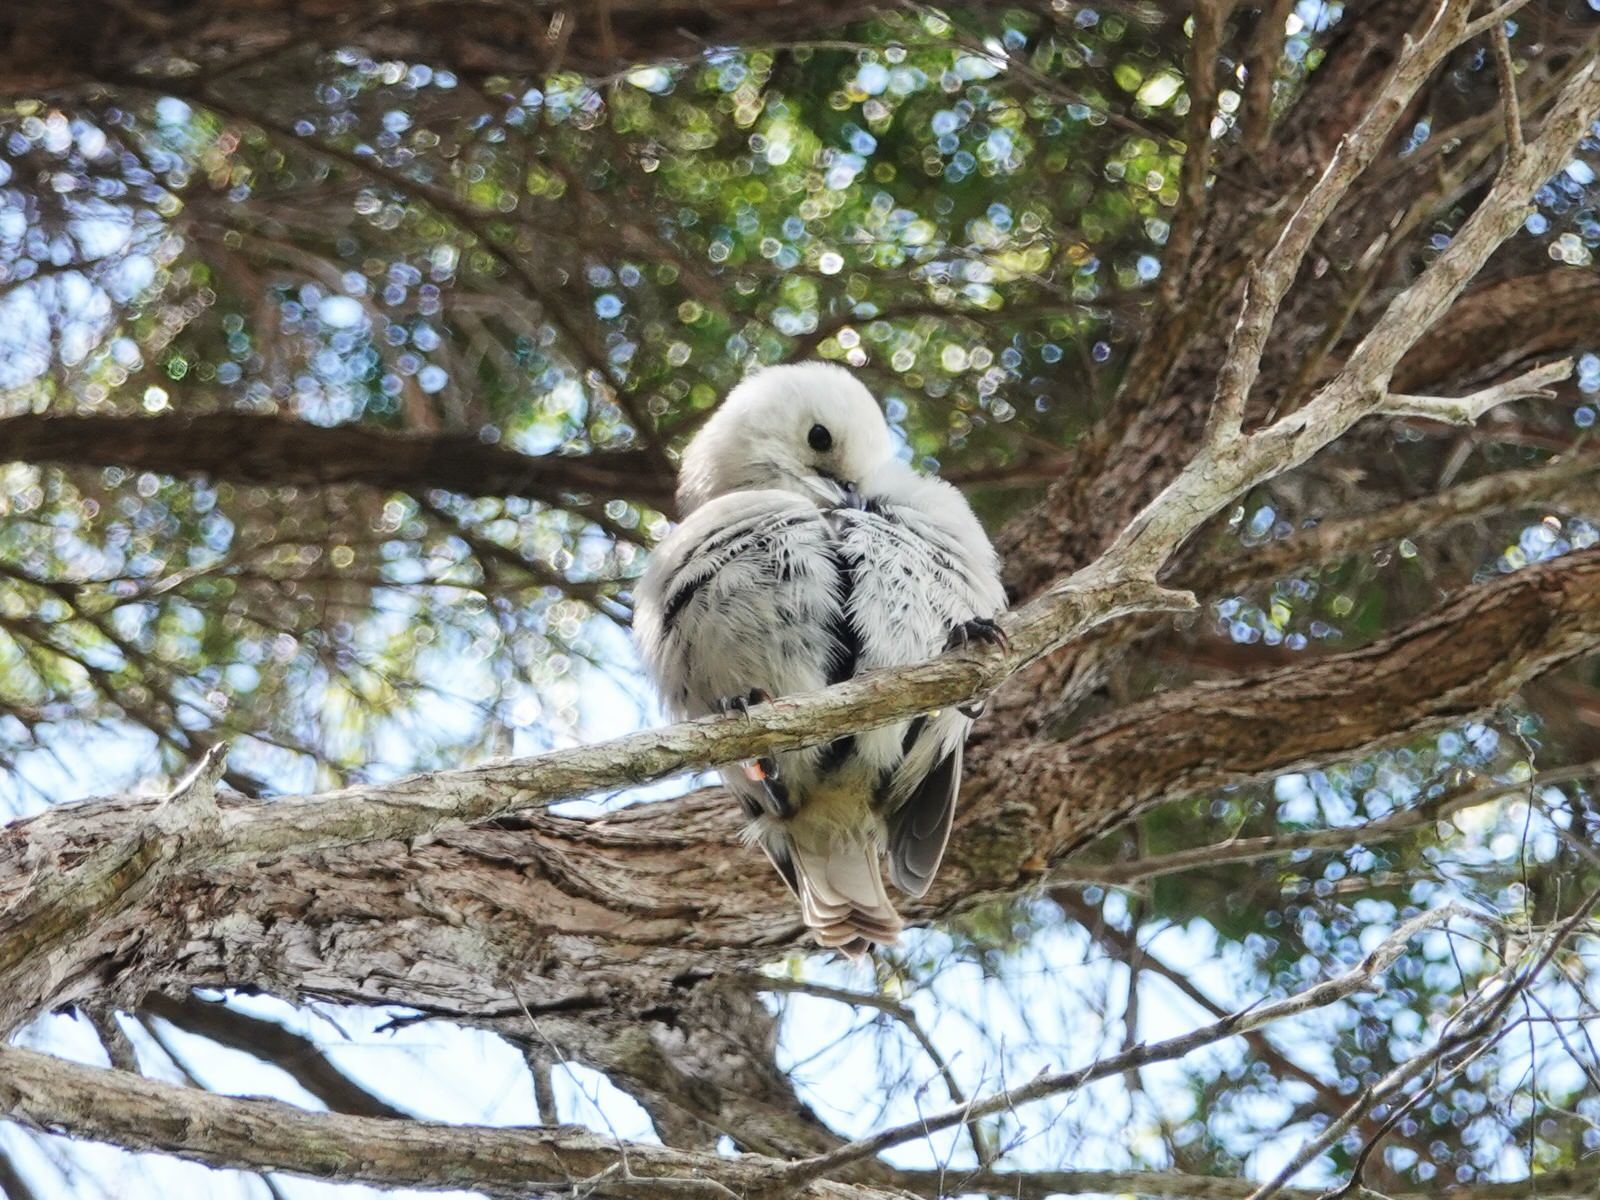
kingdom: Animalia
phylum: Chordata
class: Aves
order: Passeriformes
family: Acanthizidae
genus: Mohoua
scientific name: Mohoua albicilla
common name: Whitehead
